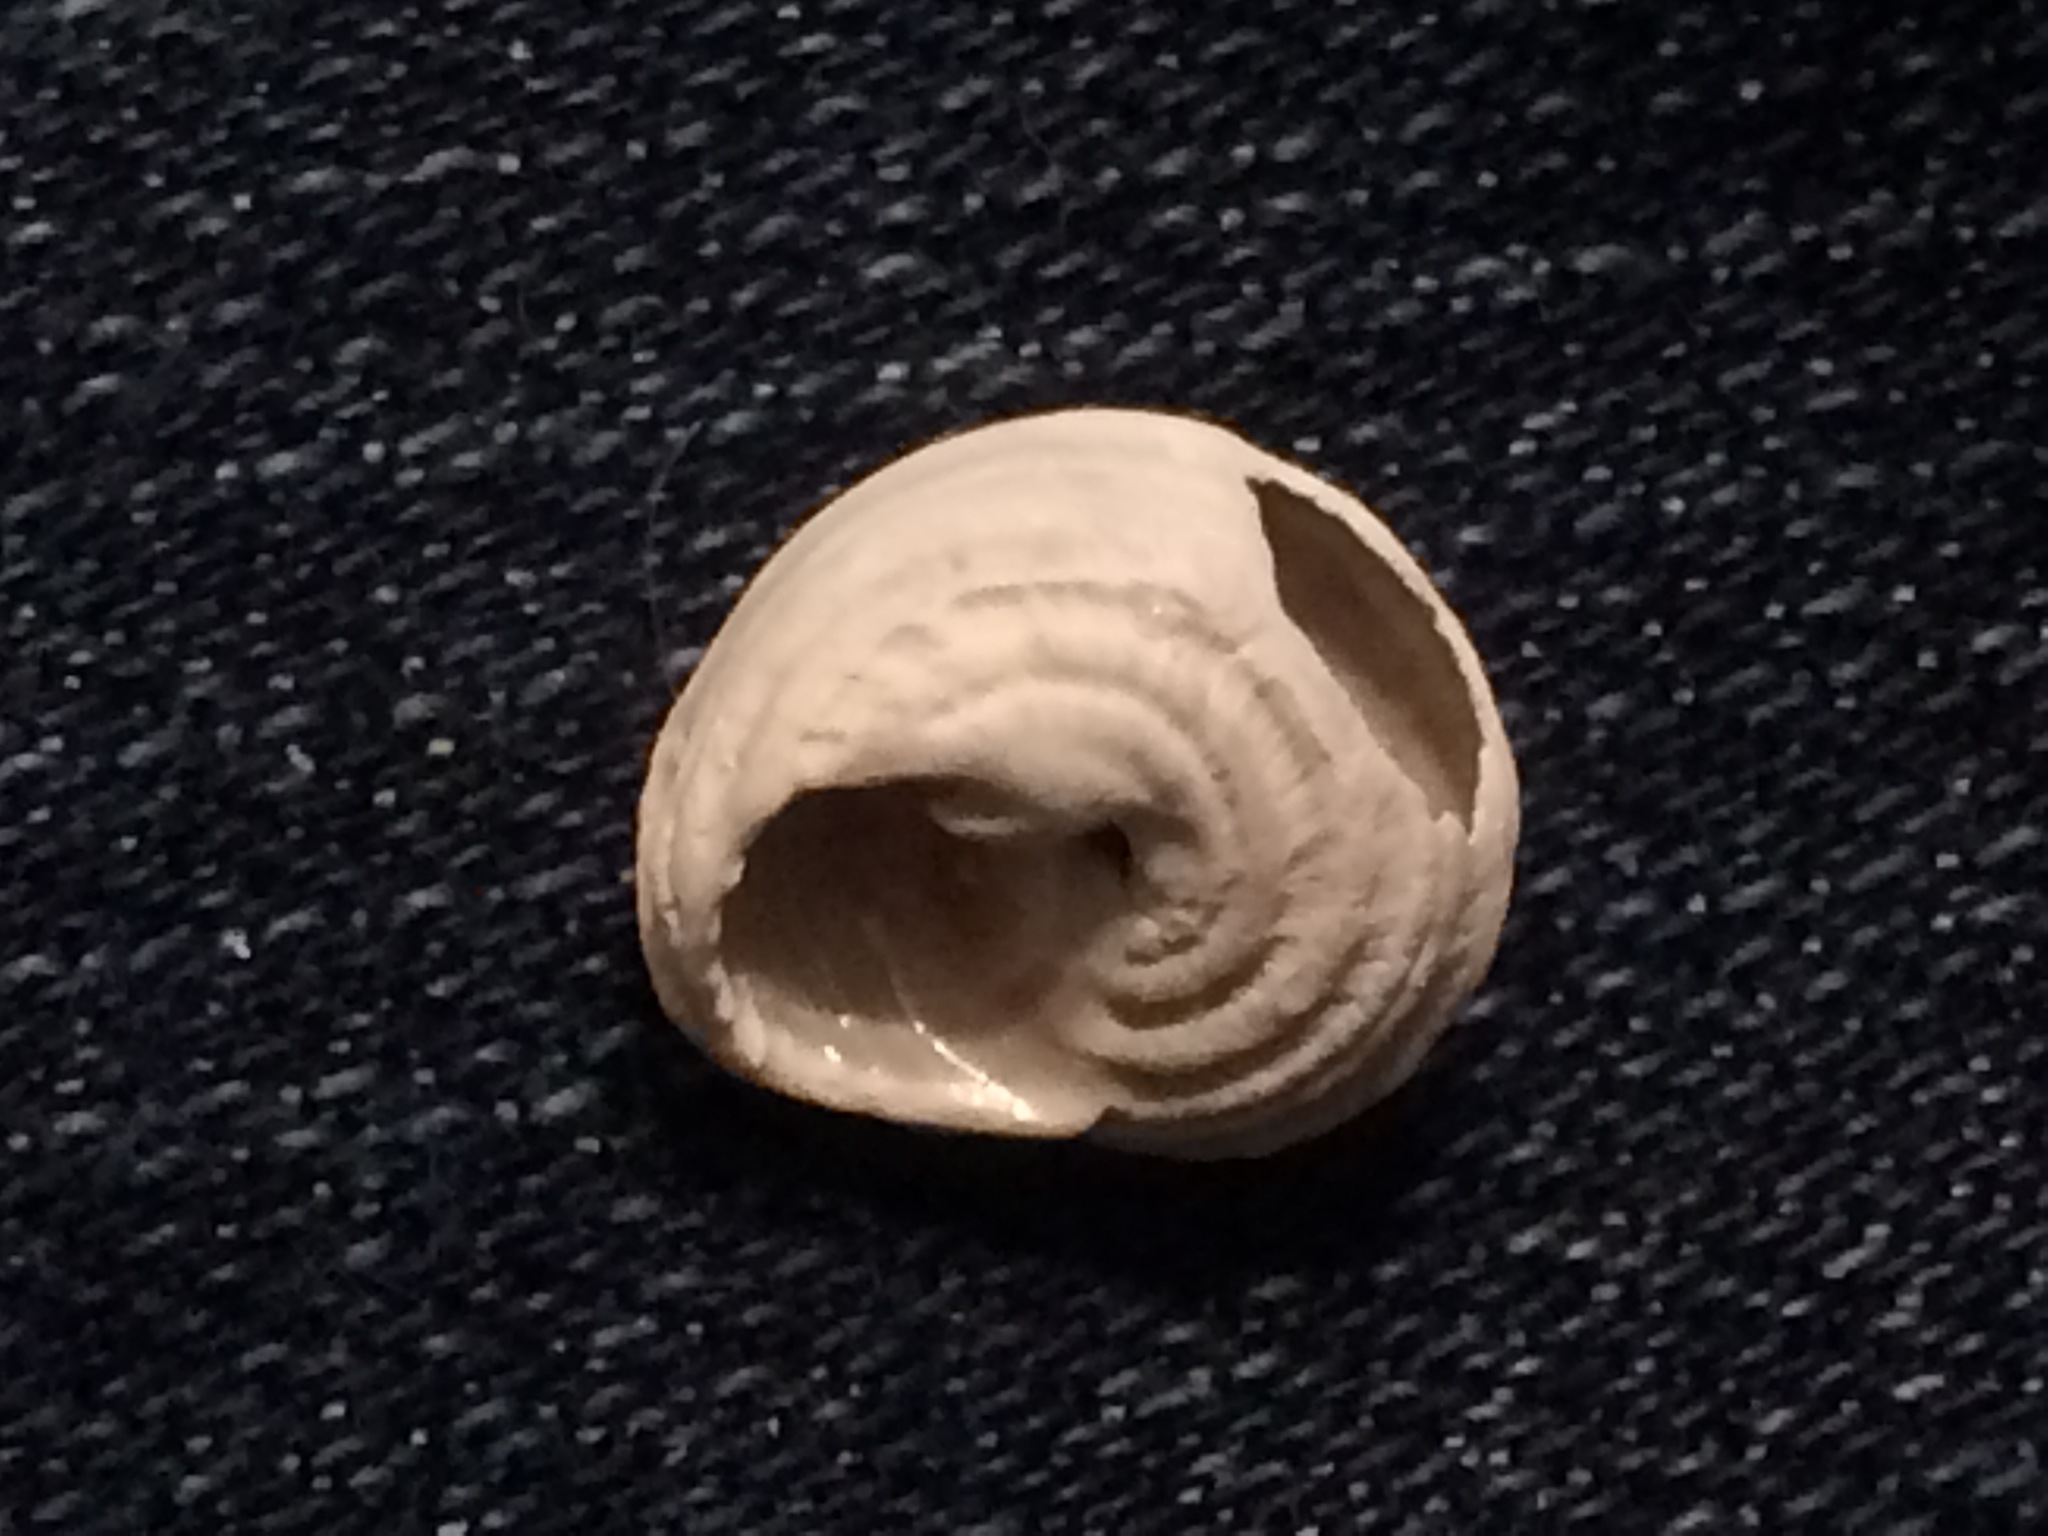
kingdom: Animalia
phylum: Mollusca
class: Gastropoda
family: Modulidae
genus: Modulus
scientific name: Modulus modulus
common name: Atlantic modulus
